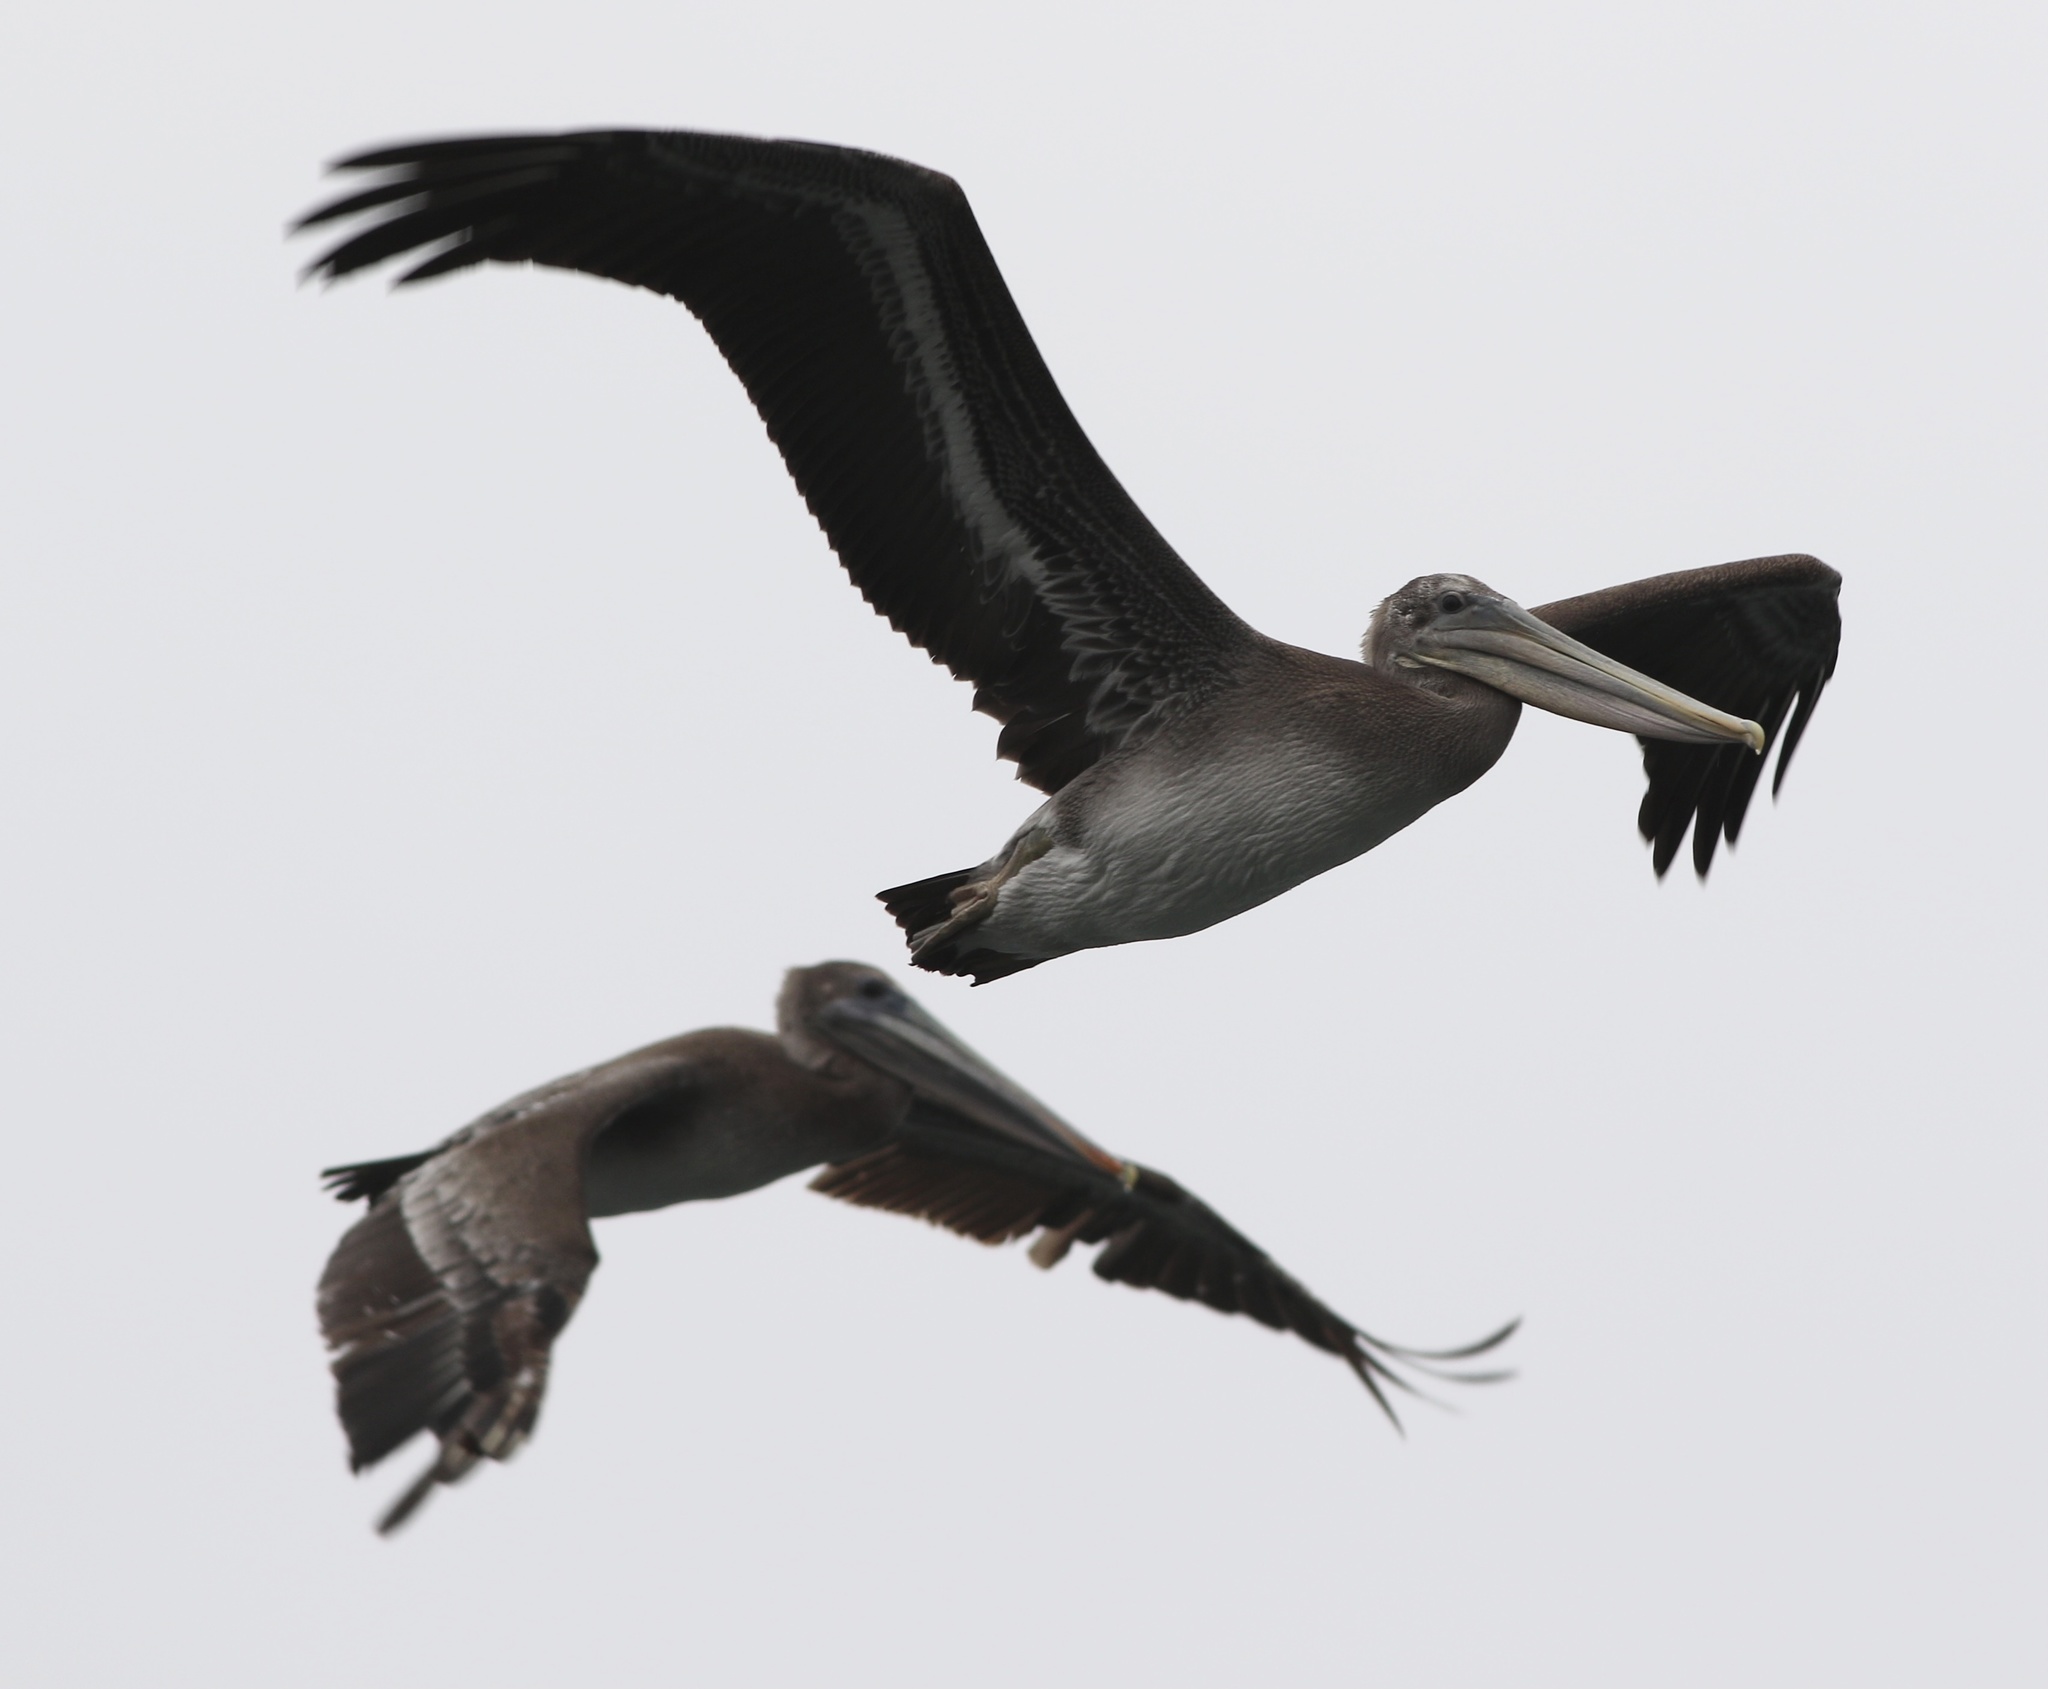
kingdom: Animalia
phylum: Chordata
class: Aves
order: Pelecaniformes
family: Pelecanidae
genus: Pelecanus
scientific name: Pelecanus occidentalis
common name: Brown pelican
